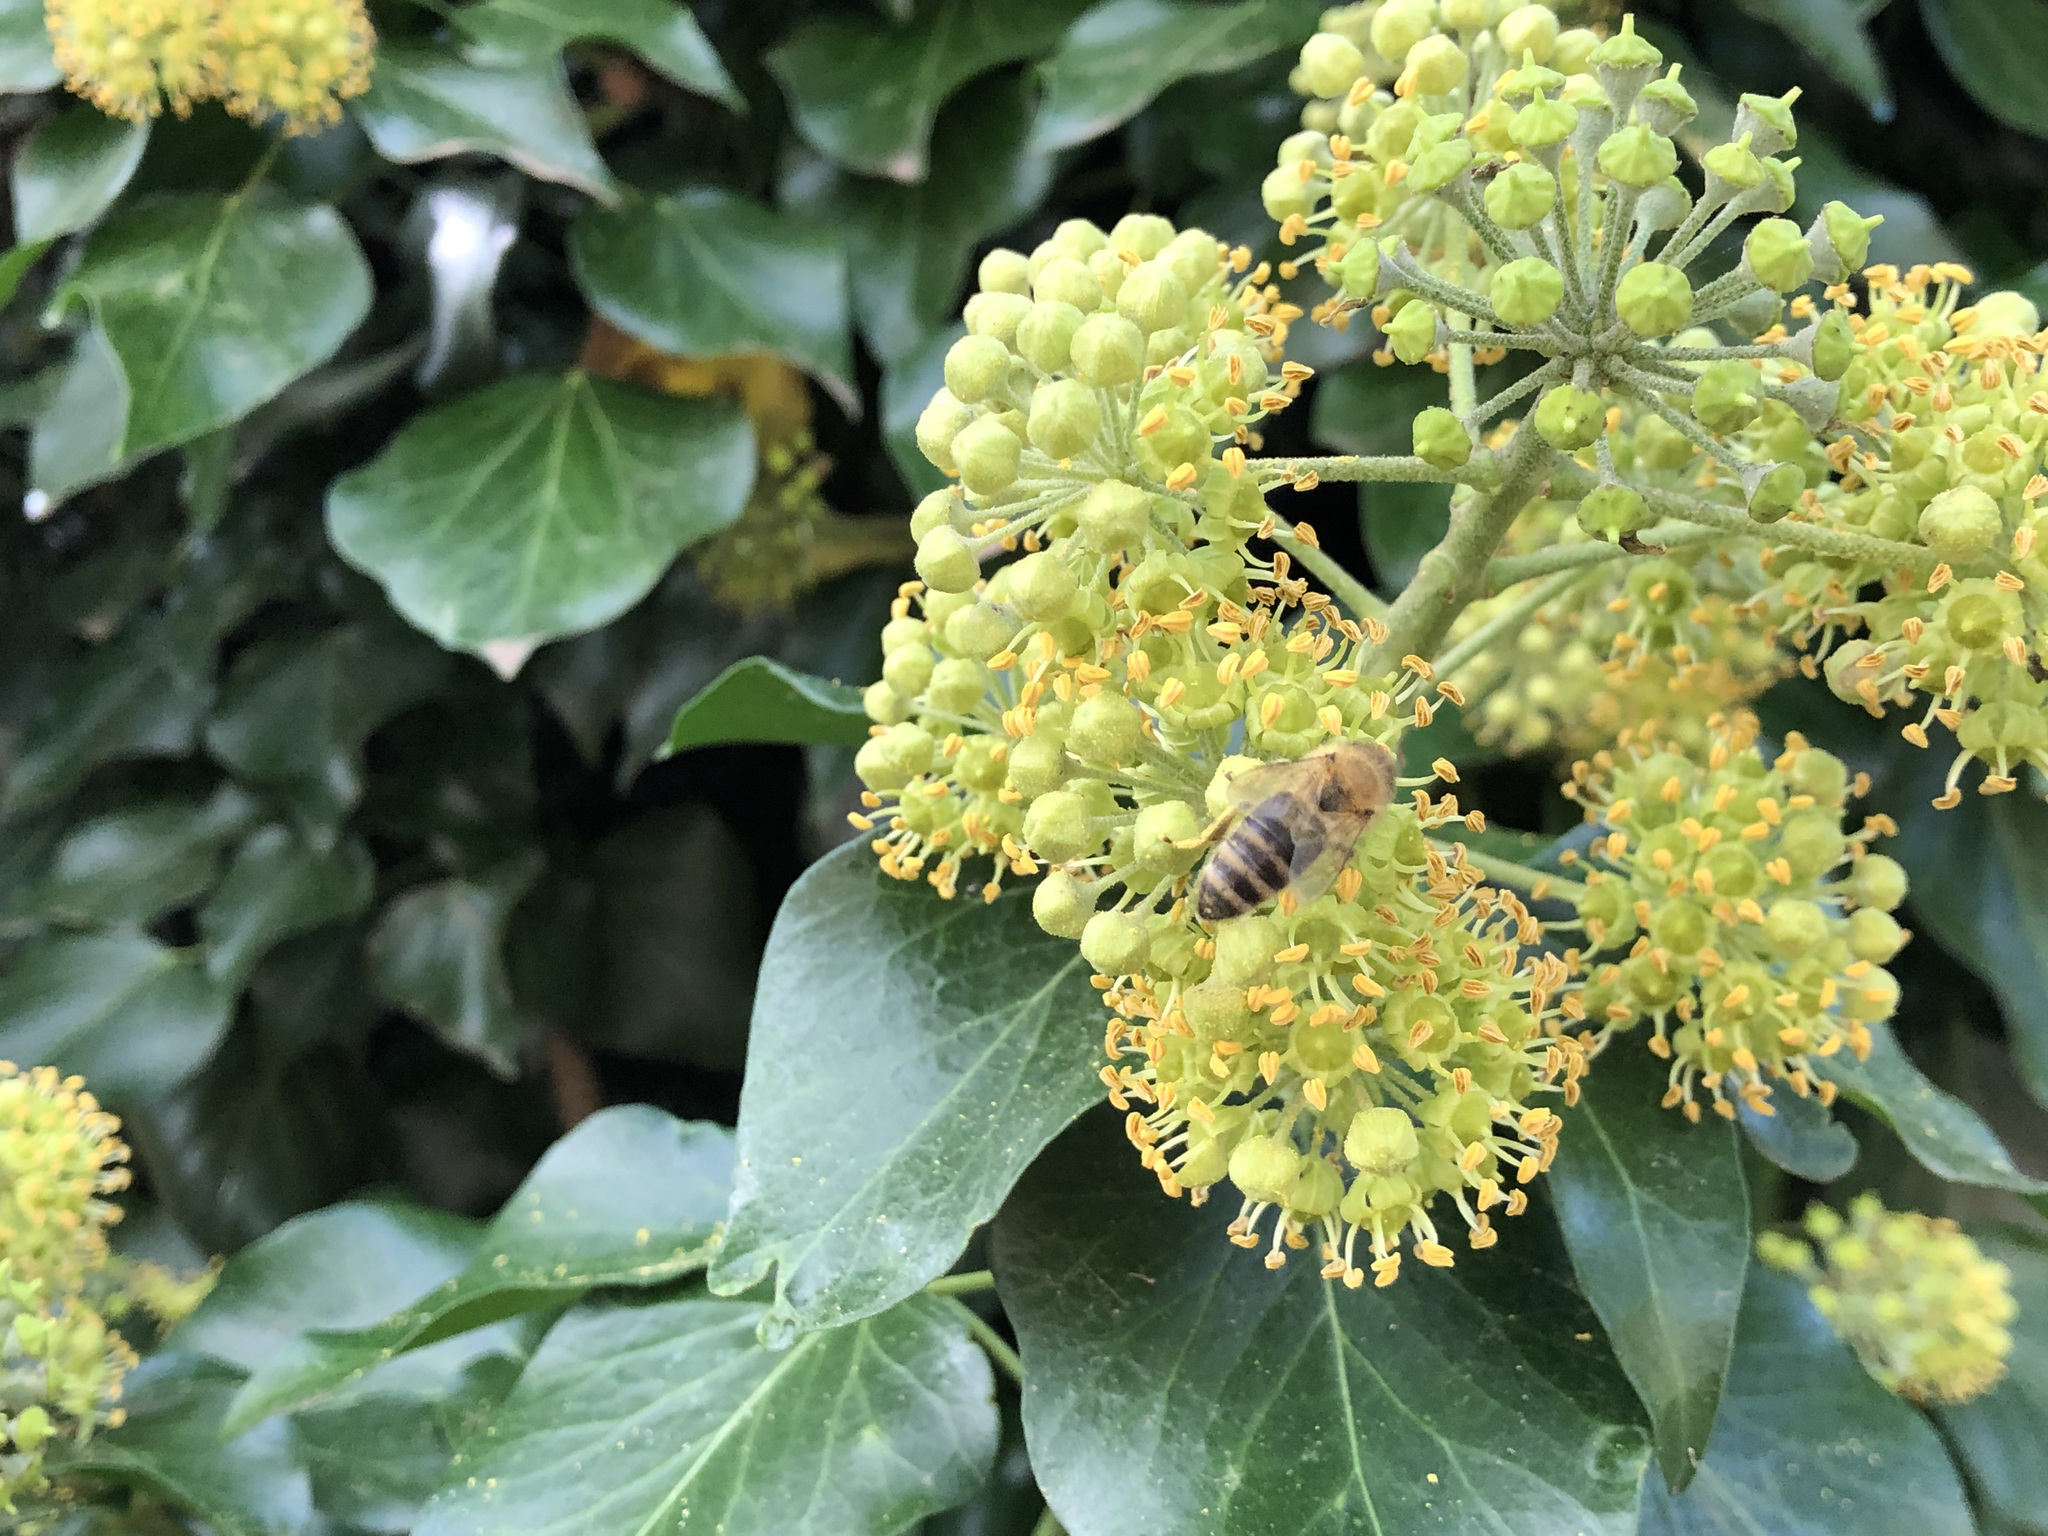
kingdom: Animalia
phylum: Arthropoda
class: Insecta
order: Hymenoptera
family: Apidae
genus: Apis
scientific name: Apis mellifera
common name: Honey bee
